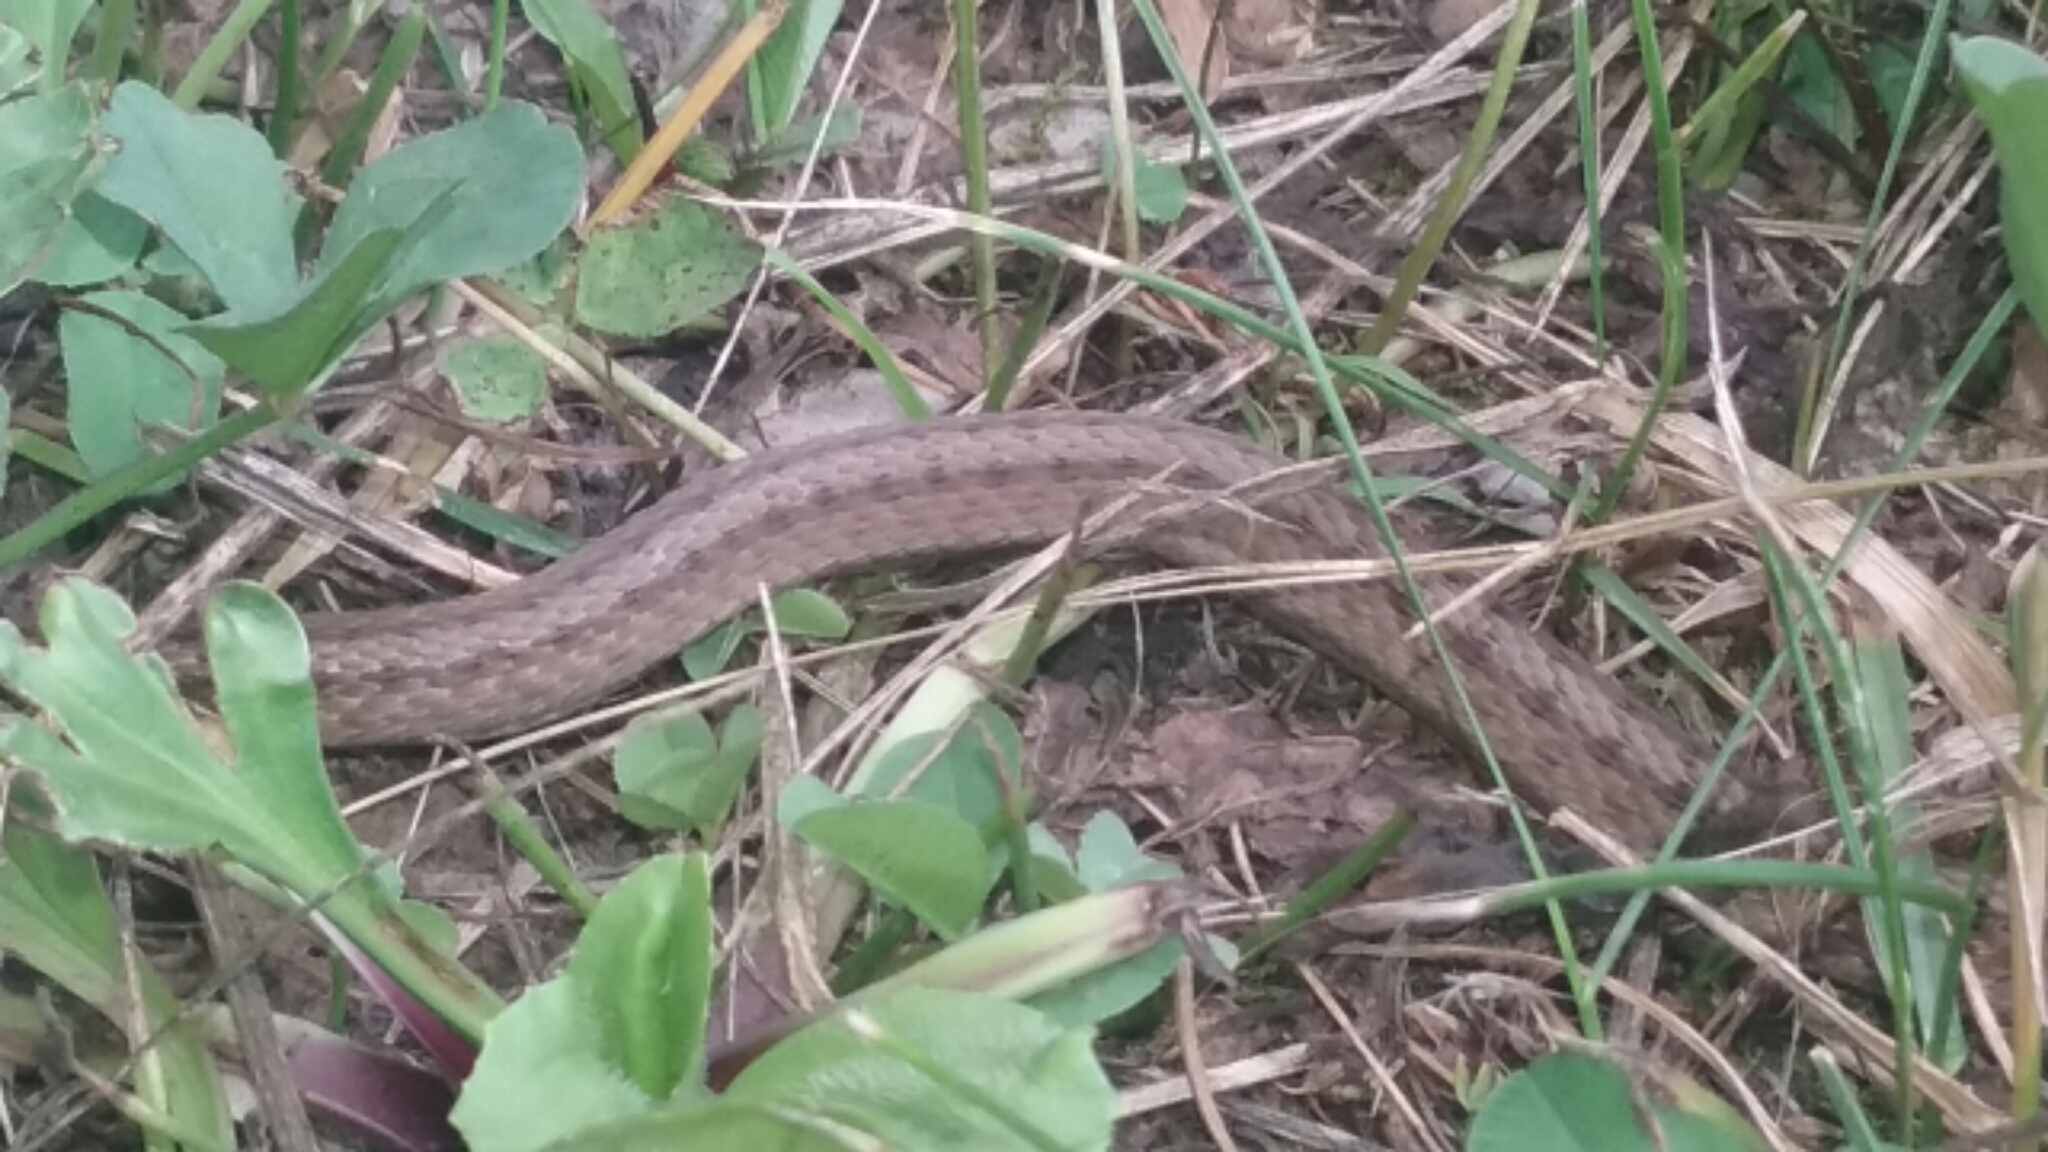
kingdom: Animalia
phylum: Chordata
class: Squamata
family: Colubridae
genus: Storeria
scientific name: Storeria dekayi
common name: (dekay’s) brown snake
